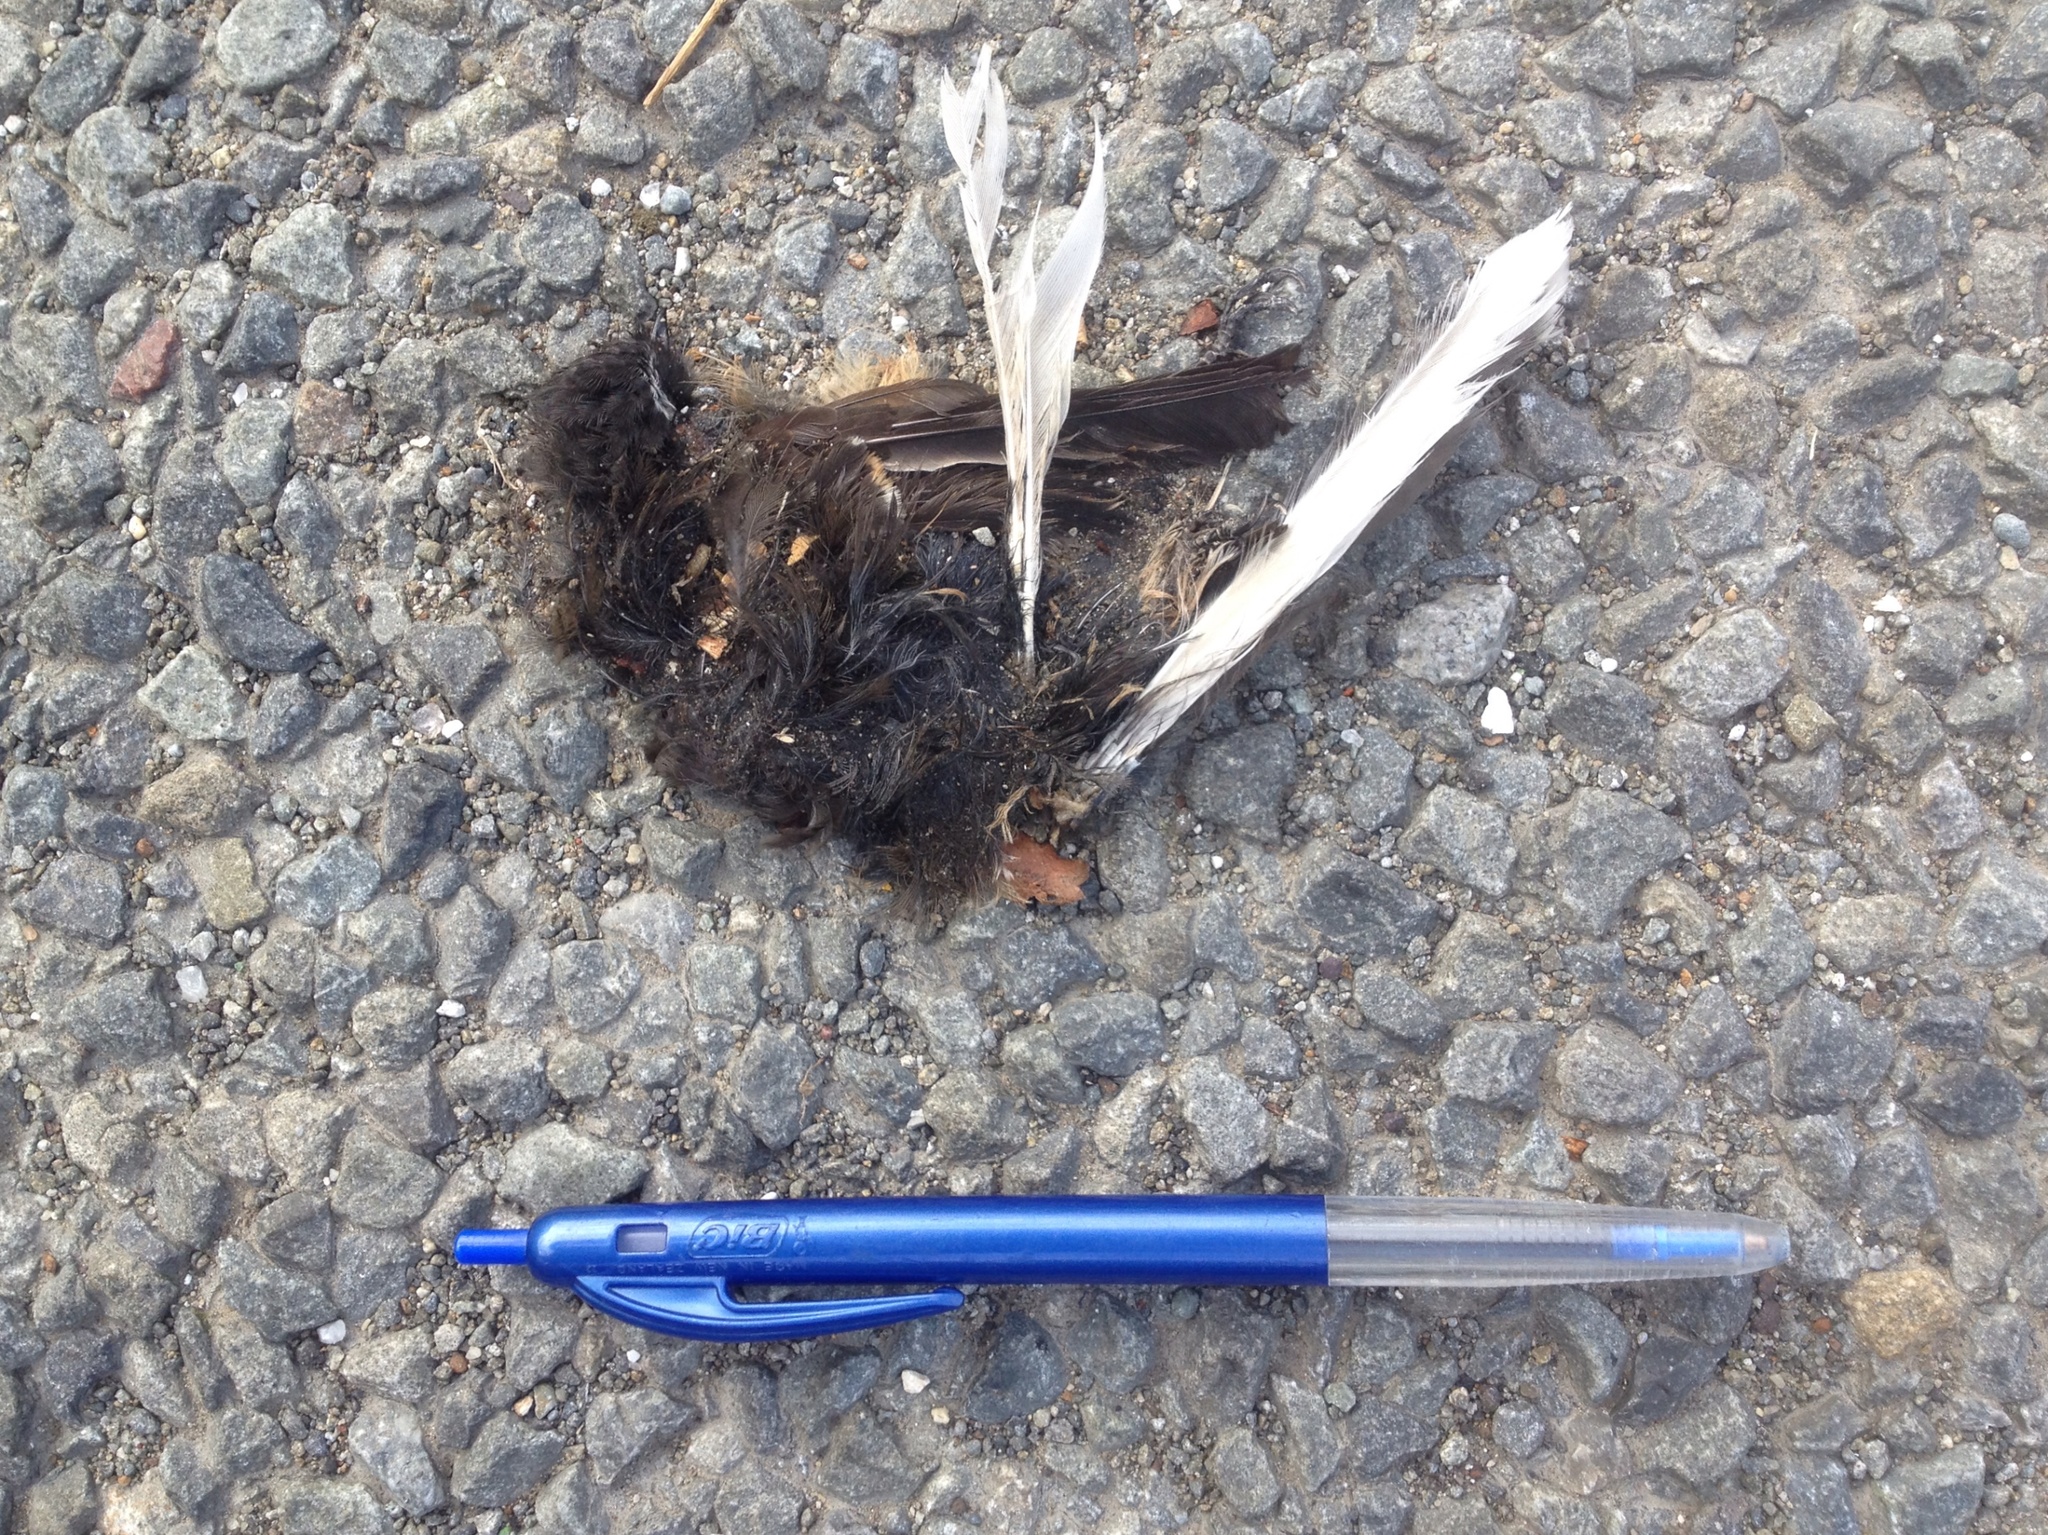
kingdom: Animalia
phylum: Chordata
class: Aves
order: Passeriformes
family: Rhipiduridae
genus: Rhipidura
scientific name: Rhipidura fuliginosa
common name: New zealand fantail
